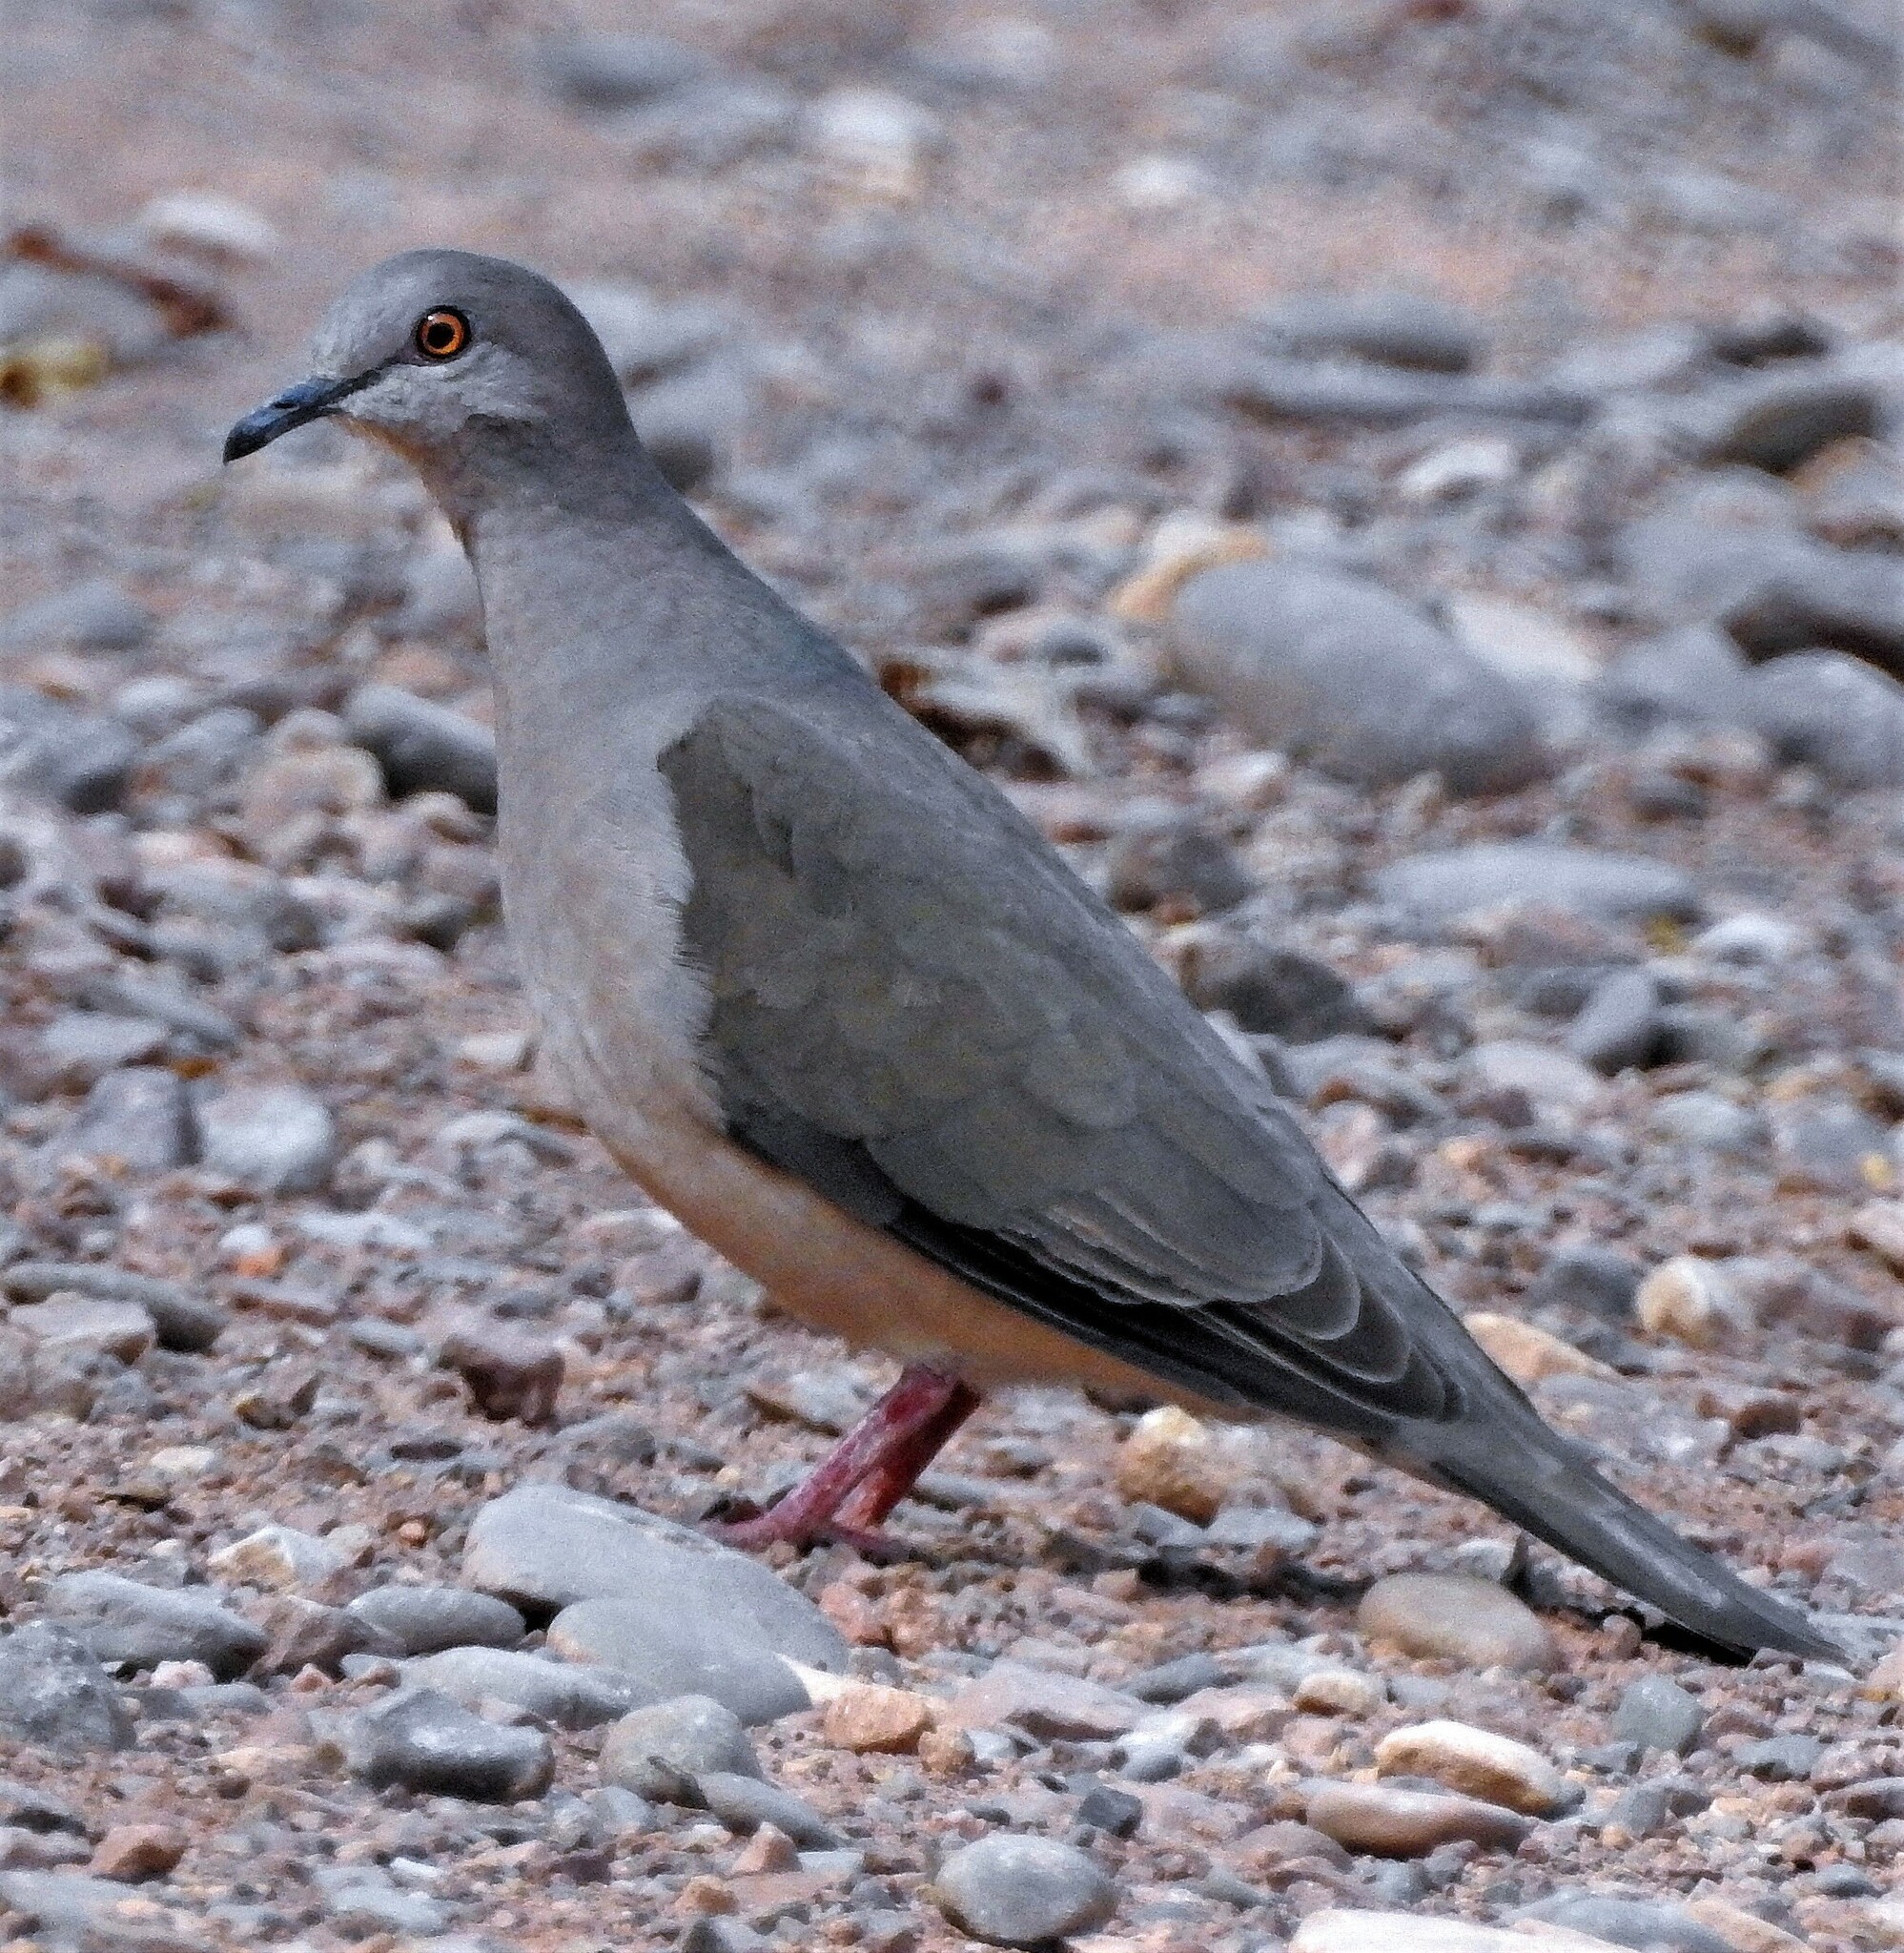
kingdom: Animalia
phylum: Chordata
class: Aves
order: Columbiformes
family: Columbidae
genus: Leptotila
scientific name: Leptotila verreauxi
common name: White-tipped dove
